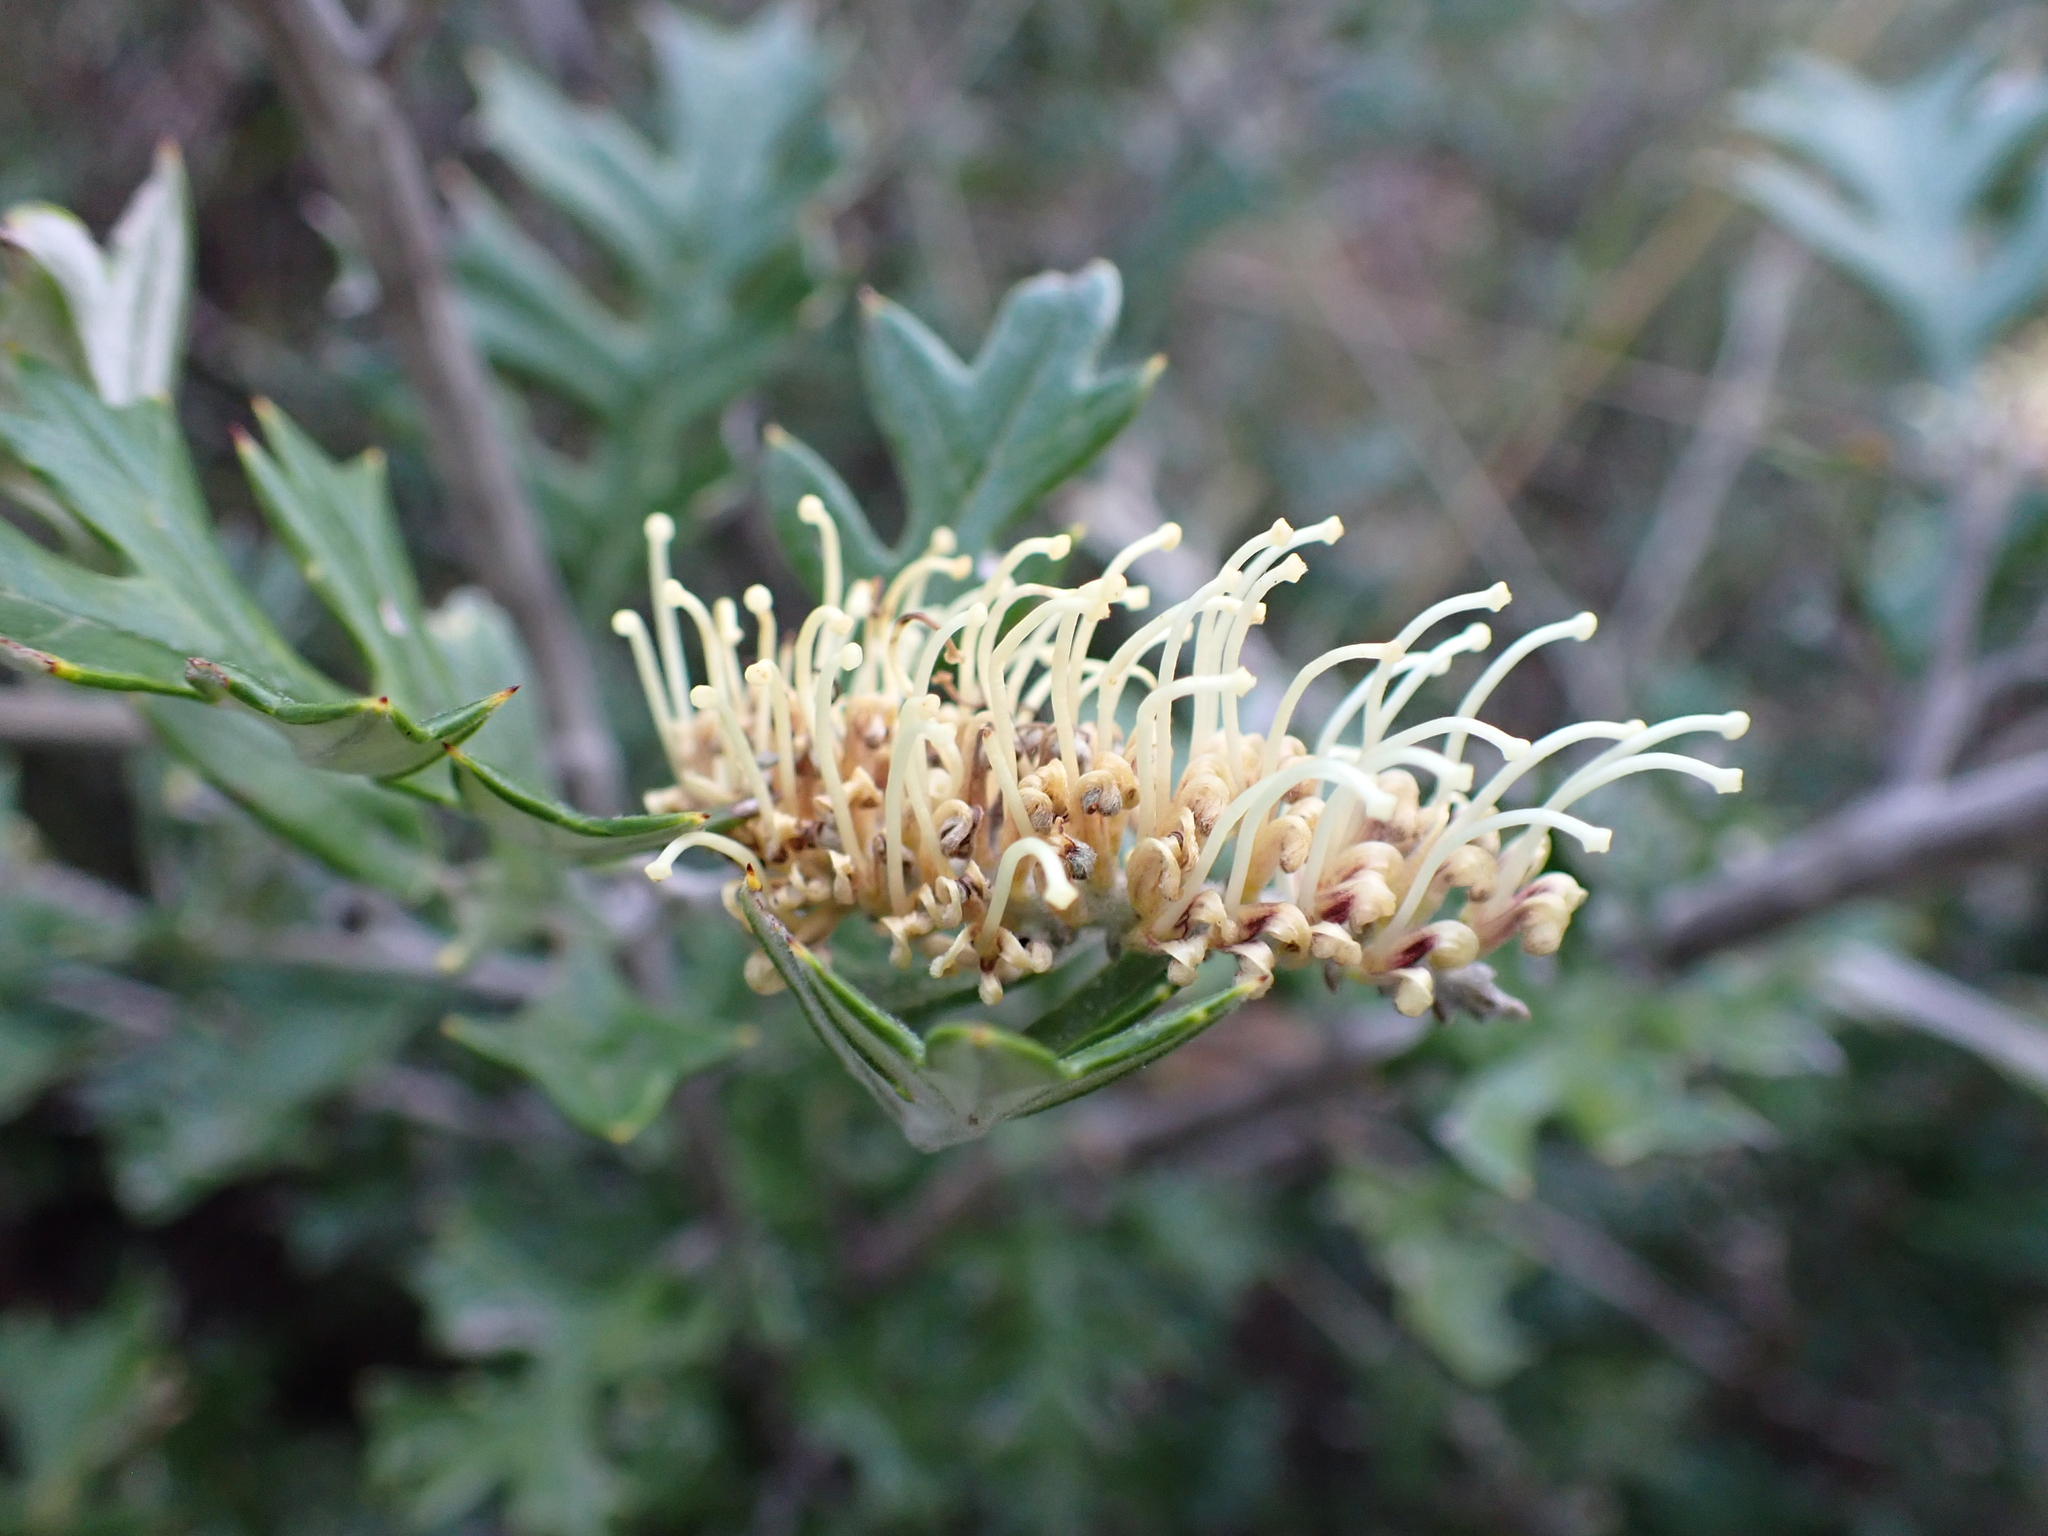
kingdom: Plantae
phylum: Tracheophyta
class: Magnoliopsida
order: Proteales
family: Proteaceae
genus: Grevillea
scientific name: Grevillea willisii
